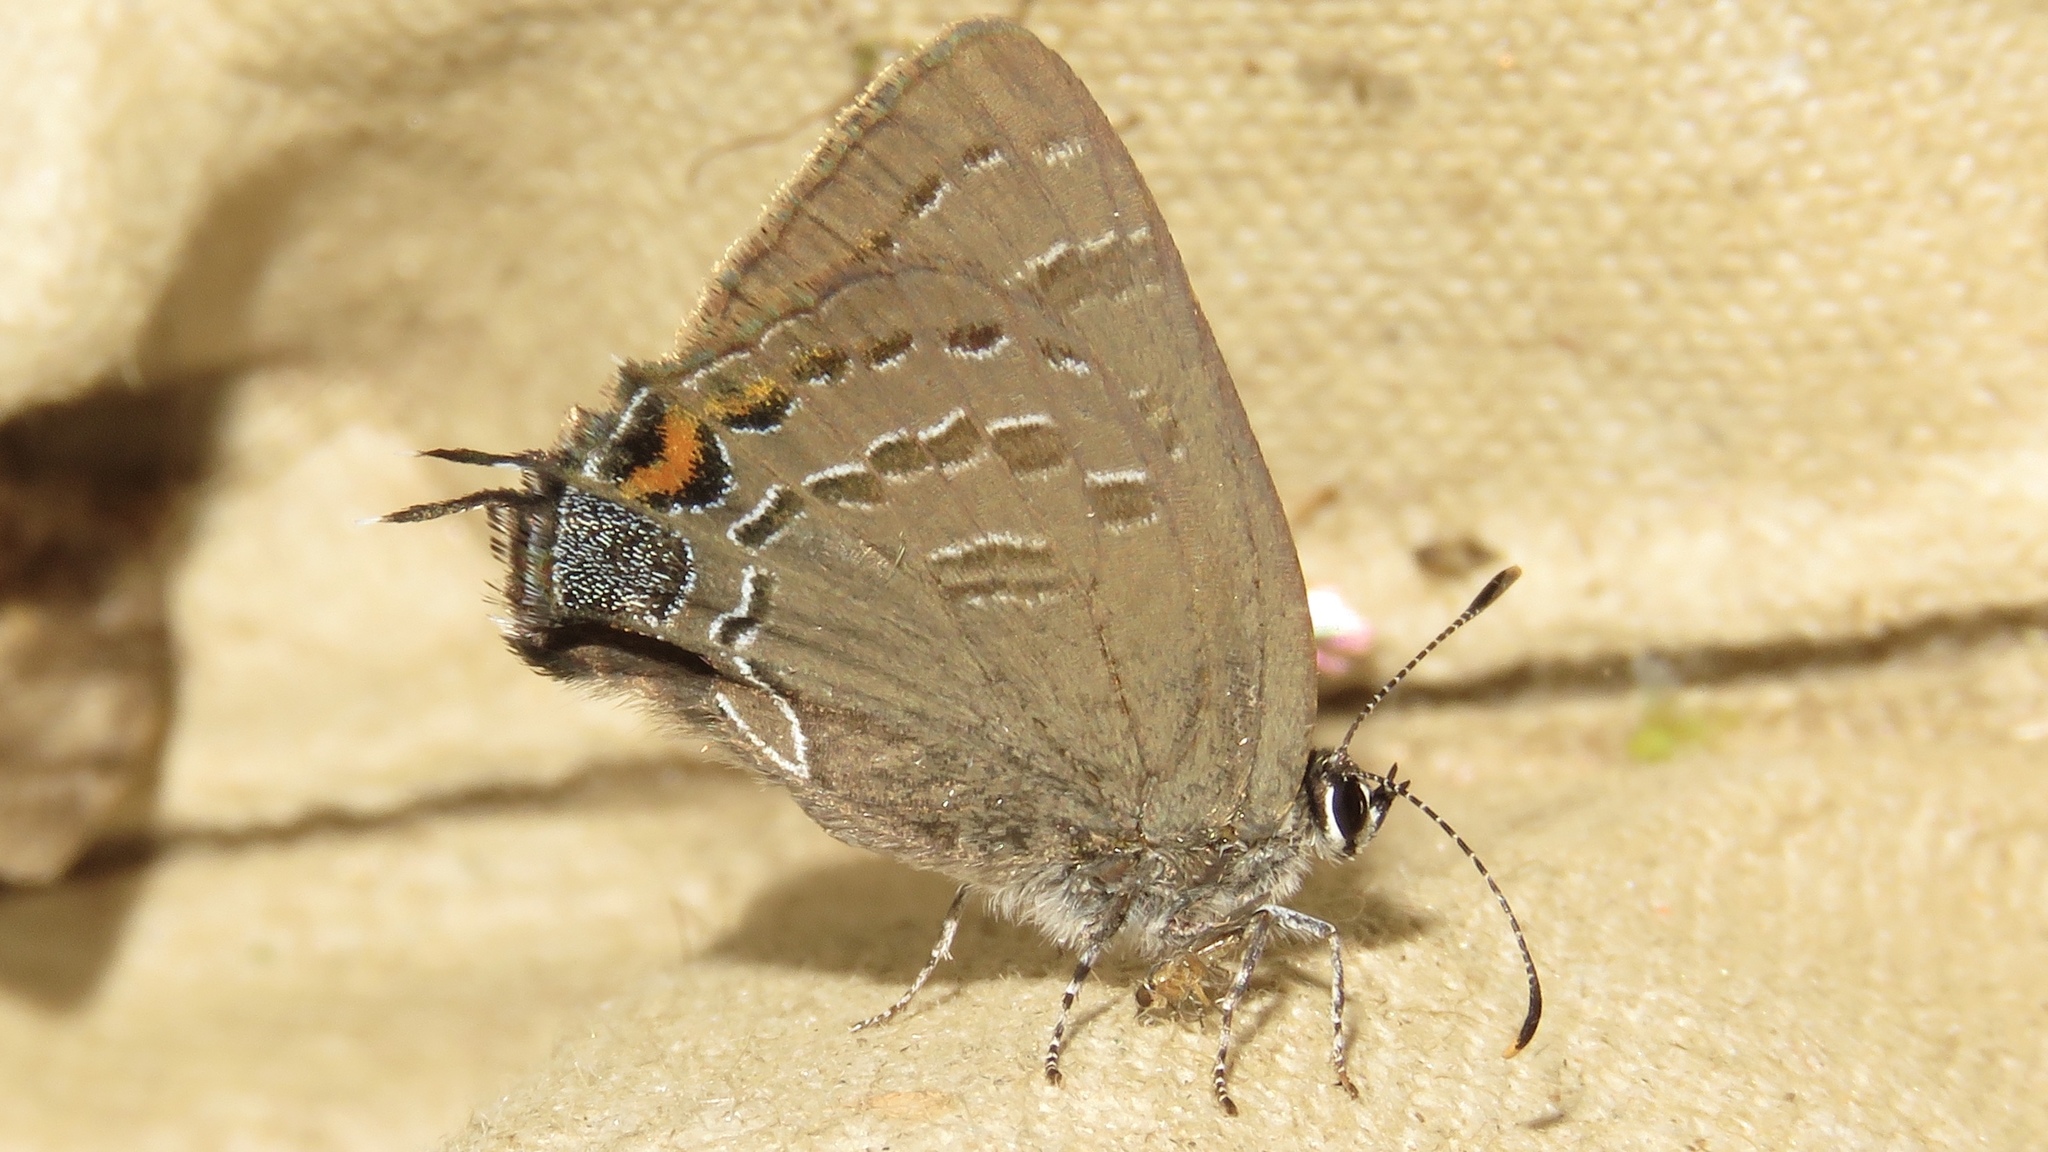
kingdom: Animalia
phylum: Arthropoda
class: Insecta
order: Lepidoptera
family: Lycaenidae
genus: Satyrium
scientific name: Satyrium calanus
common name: Banded hairstreak
